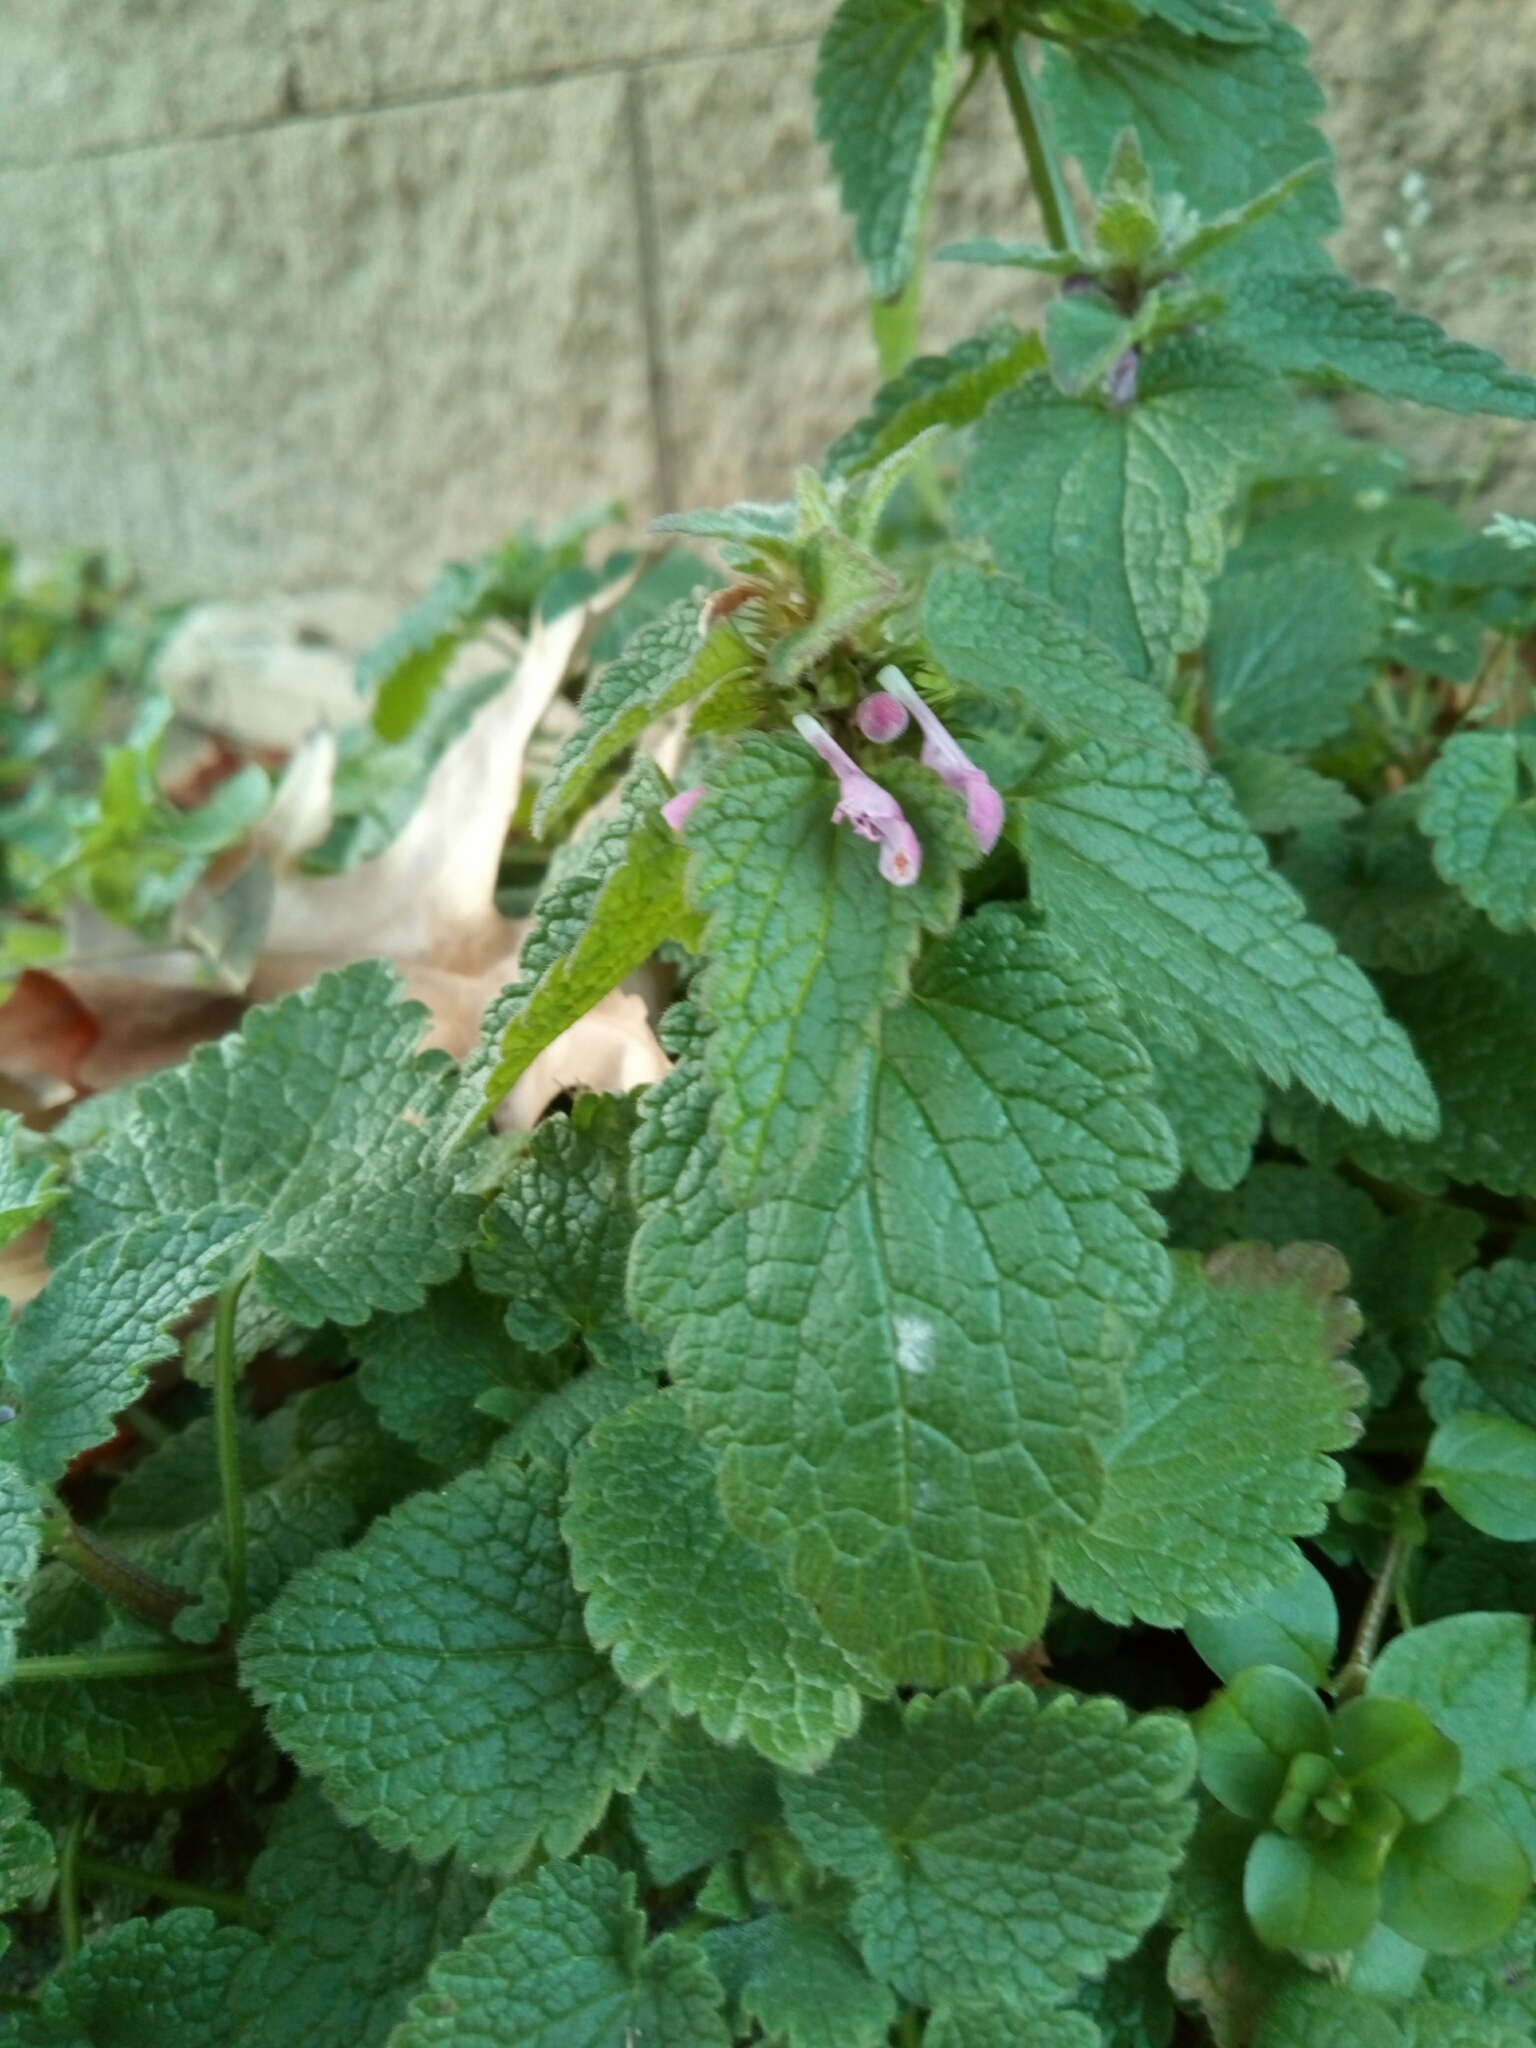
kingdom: Plantae
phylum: Tracheophyta
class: Magnoliopsida
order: Lamiales
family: Lamiaceae
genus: Lamium
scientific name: Lamium purpureum
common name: Red dead-nettle
